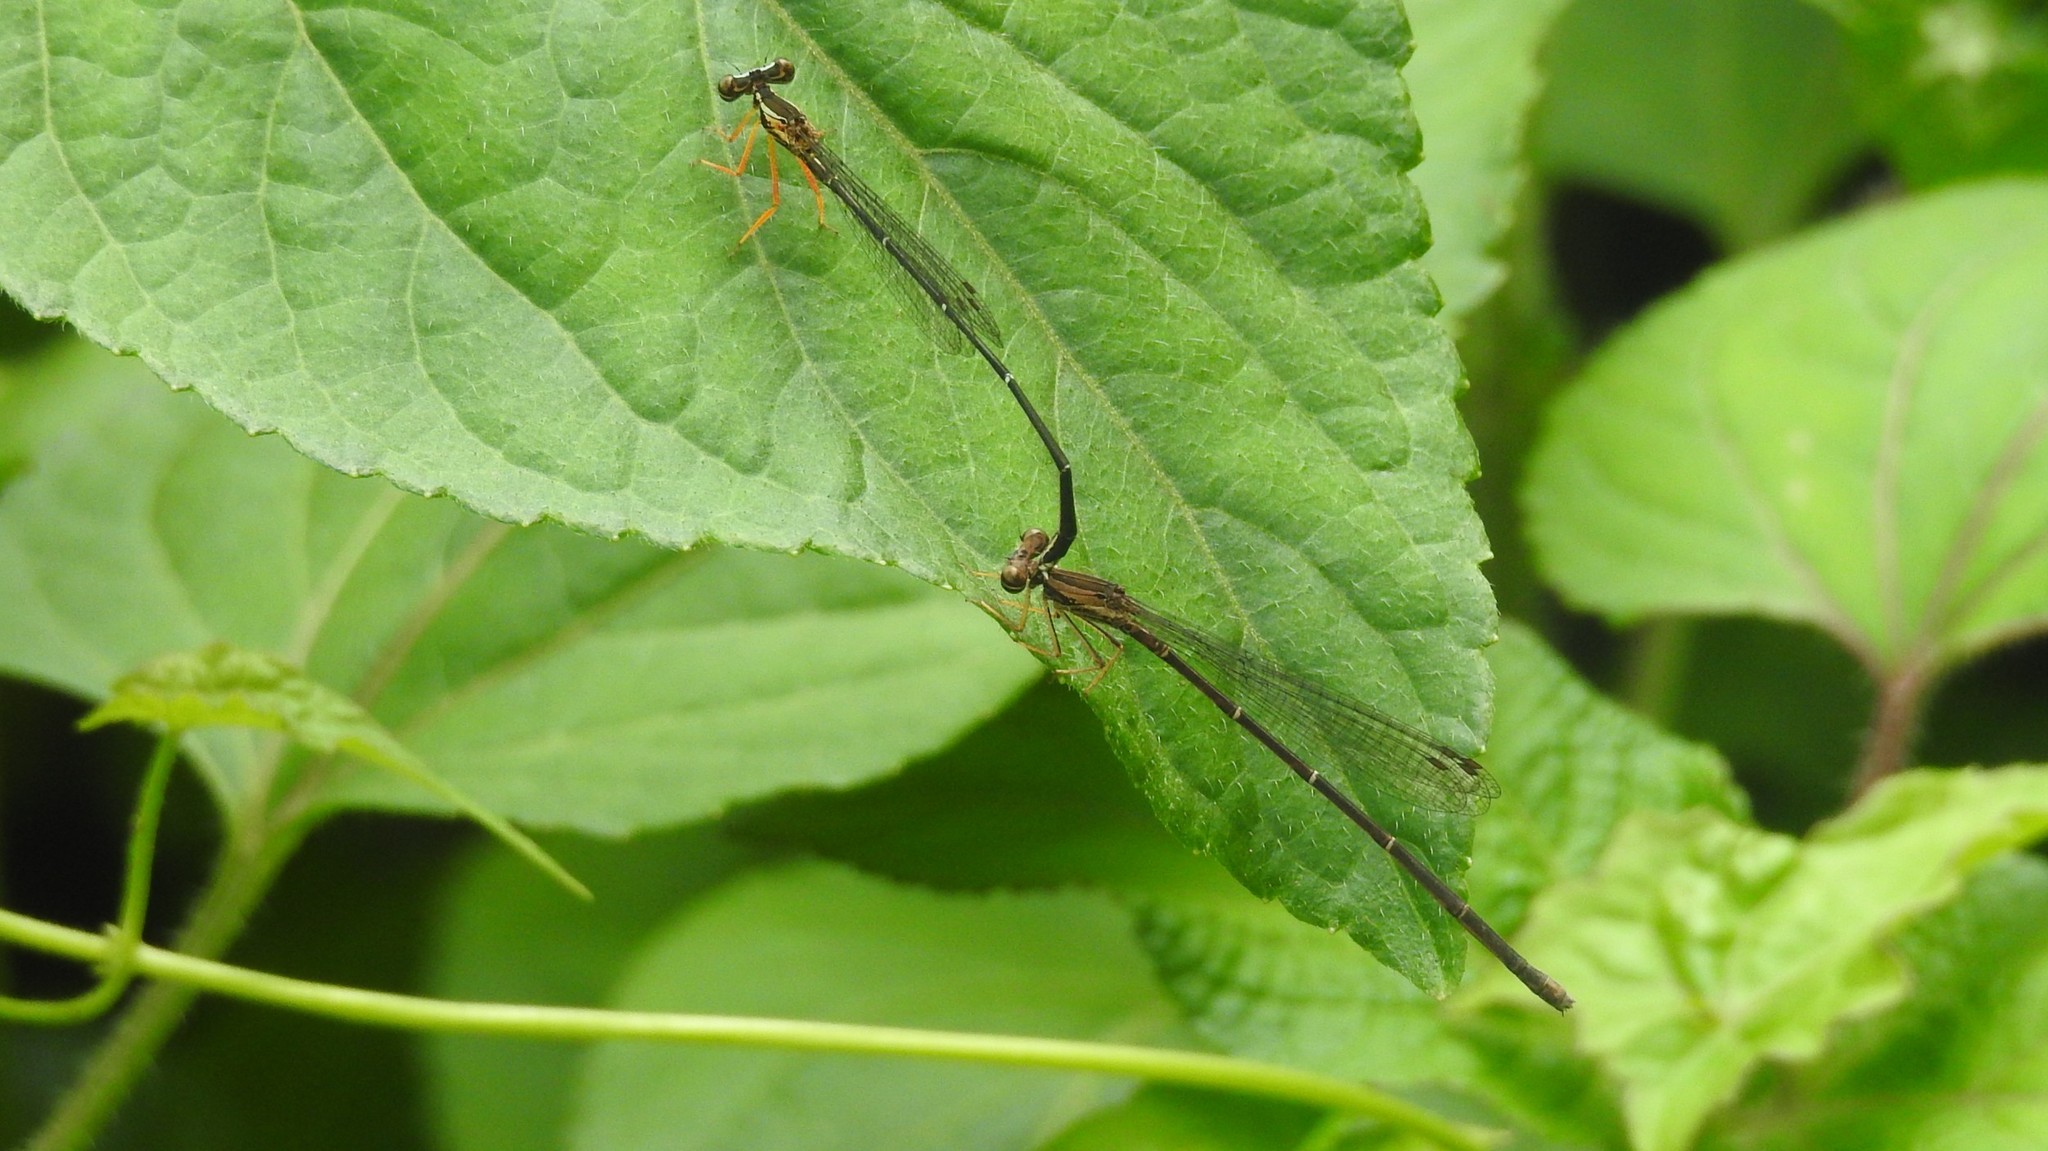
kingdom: Animalia
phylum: Arthropoda
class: Insecta
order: Odonata
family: Platycnemididae
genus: Copera
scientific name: Copera vittata
